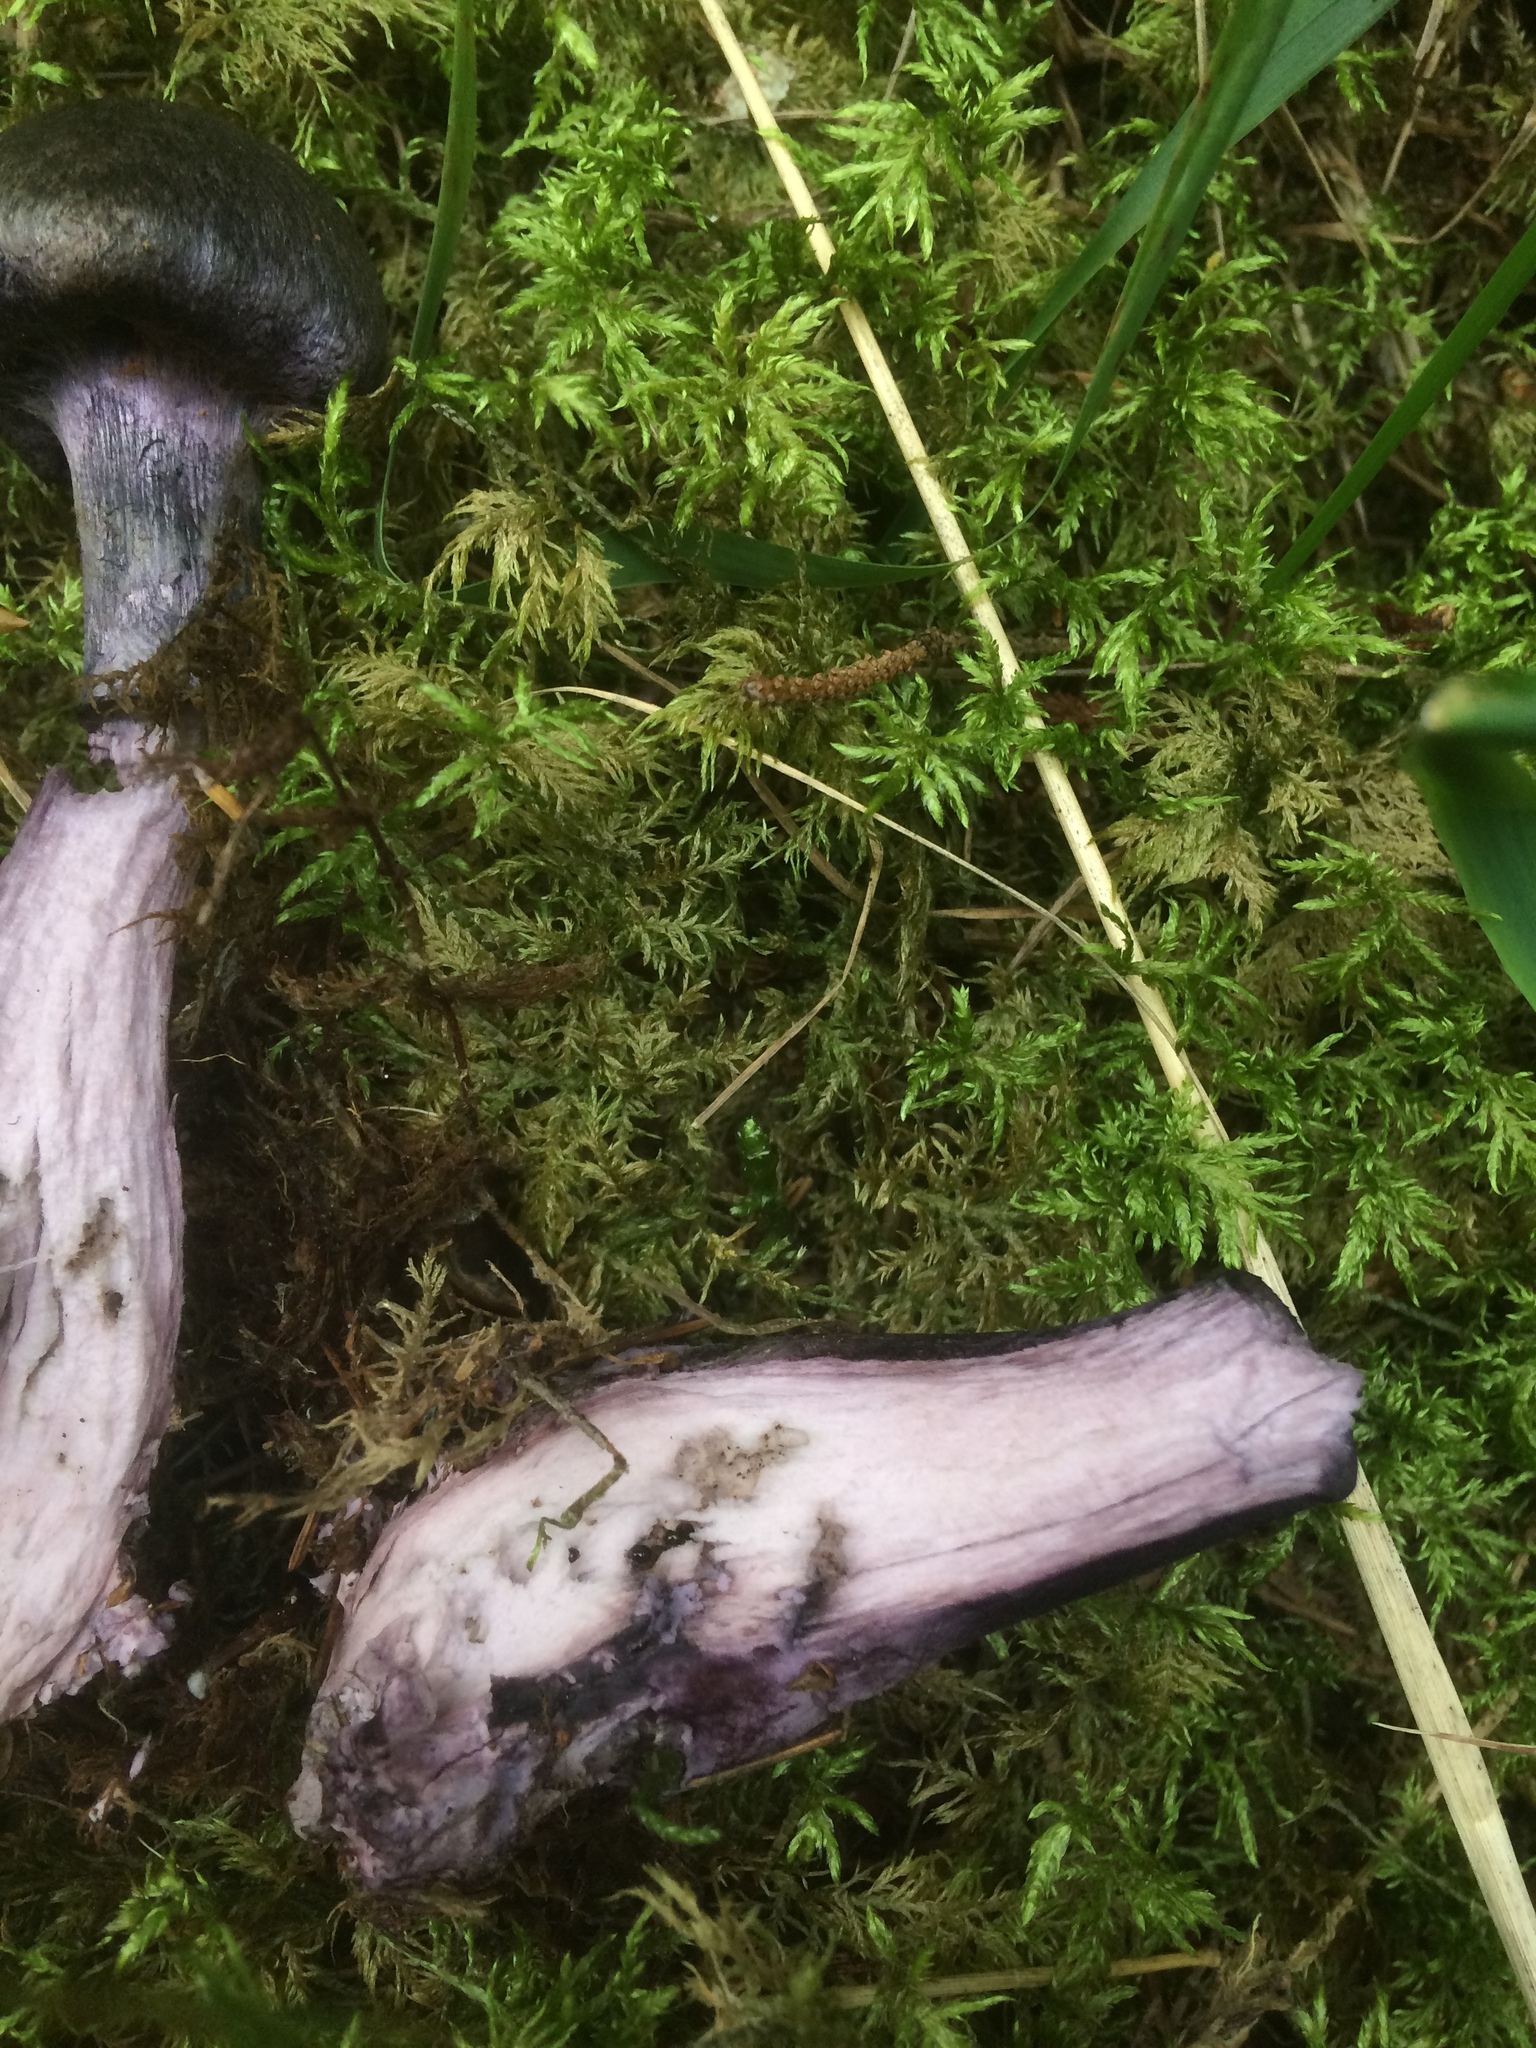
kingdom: Fungi
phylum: Basidiomycota
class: Agaricomycetes
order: Agaricales
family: Cortinariaceae
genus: Cortinarius
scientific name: Cortinarius violaceus
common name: Violet webcap
